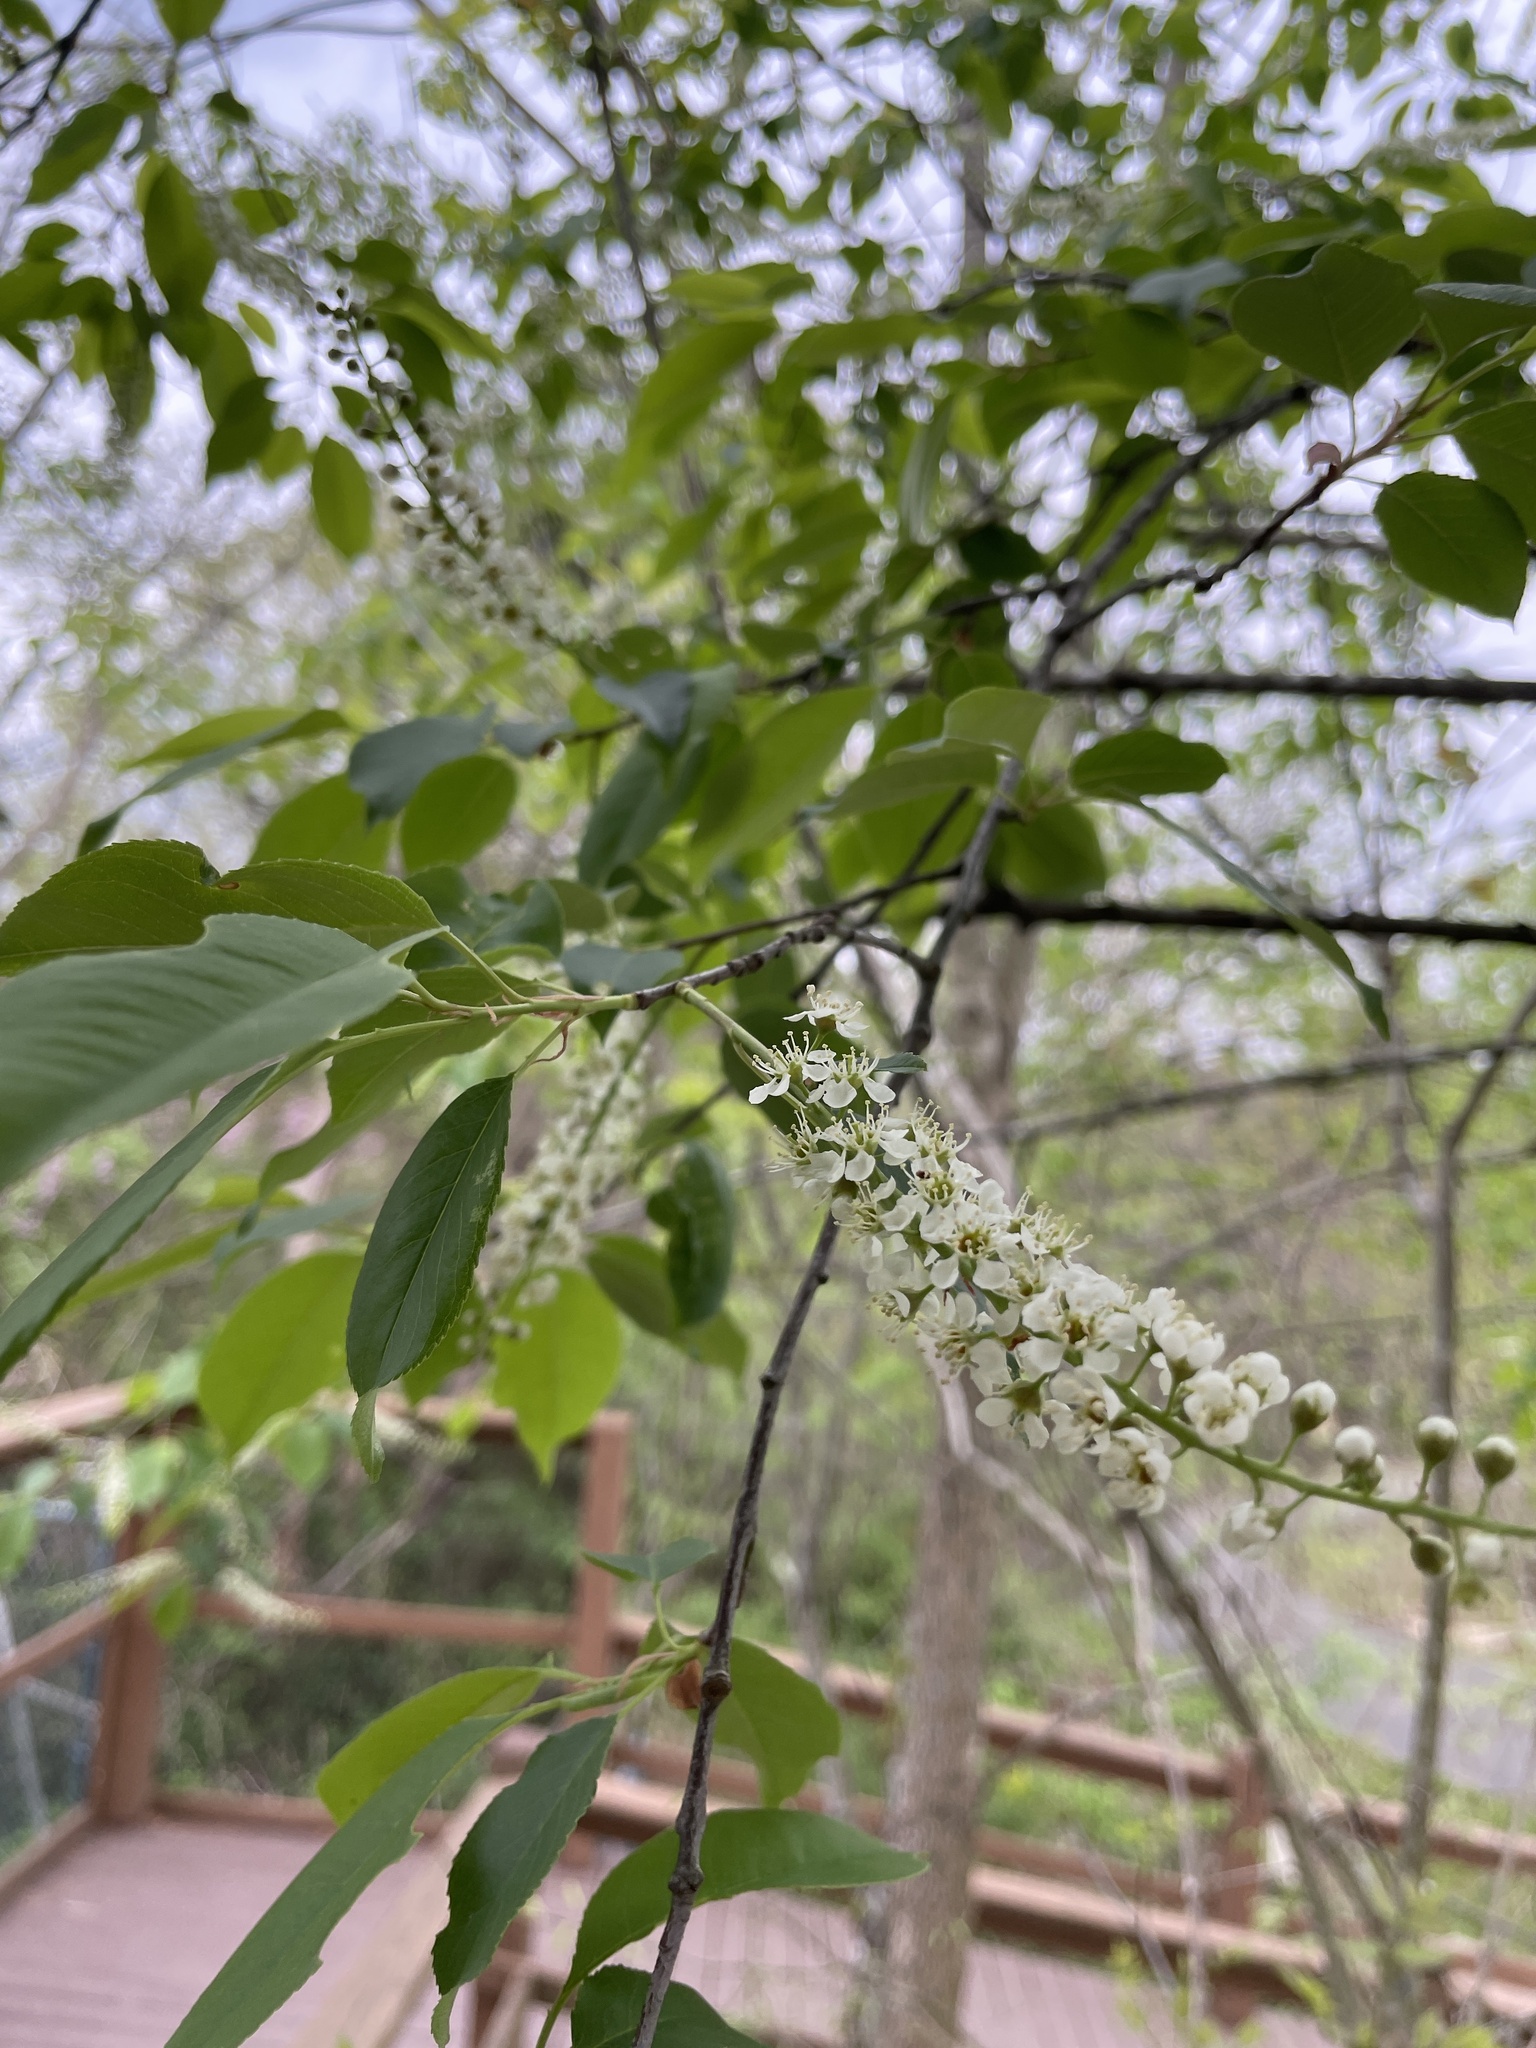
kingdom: Plantae
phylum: Tracheophyta
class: Magnoliopsida
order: Rosales
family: Rosaceae
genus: Prunus
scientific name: Prunus serotina
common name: Black cherry
